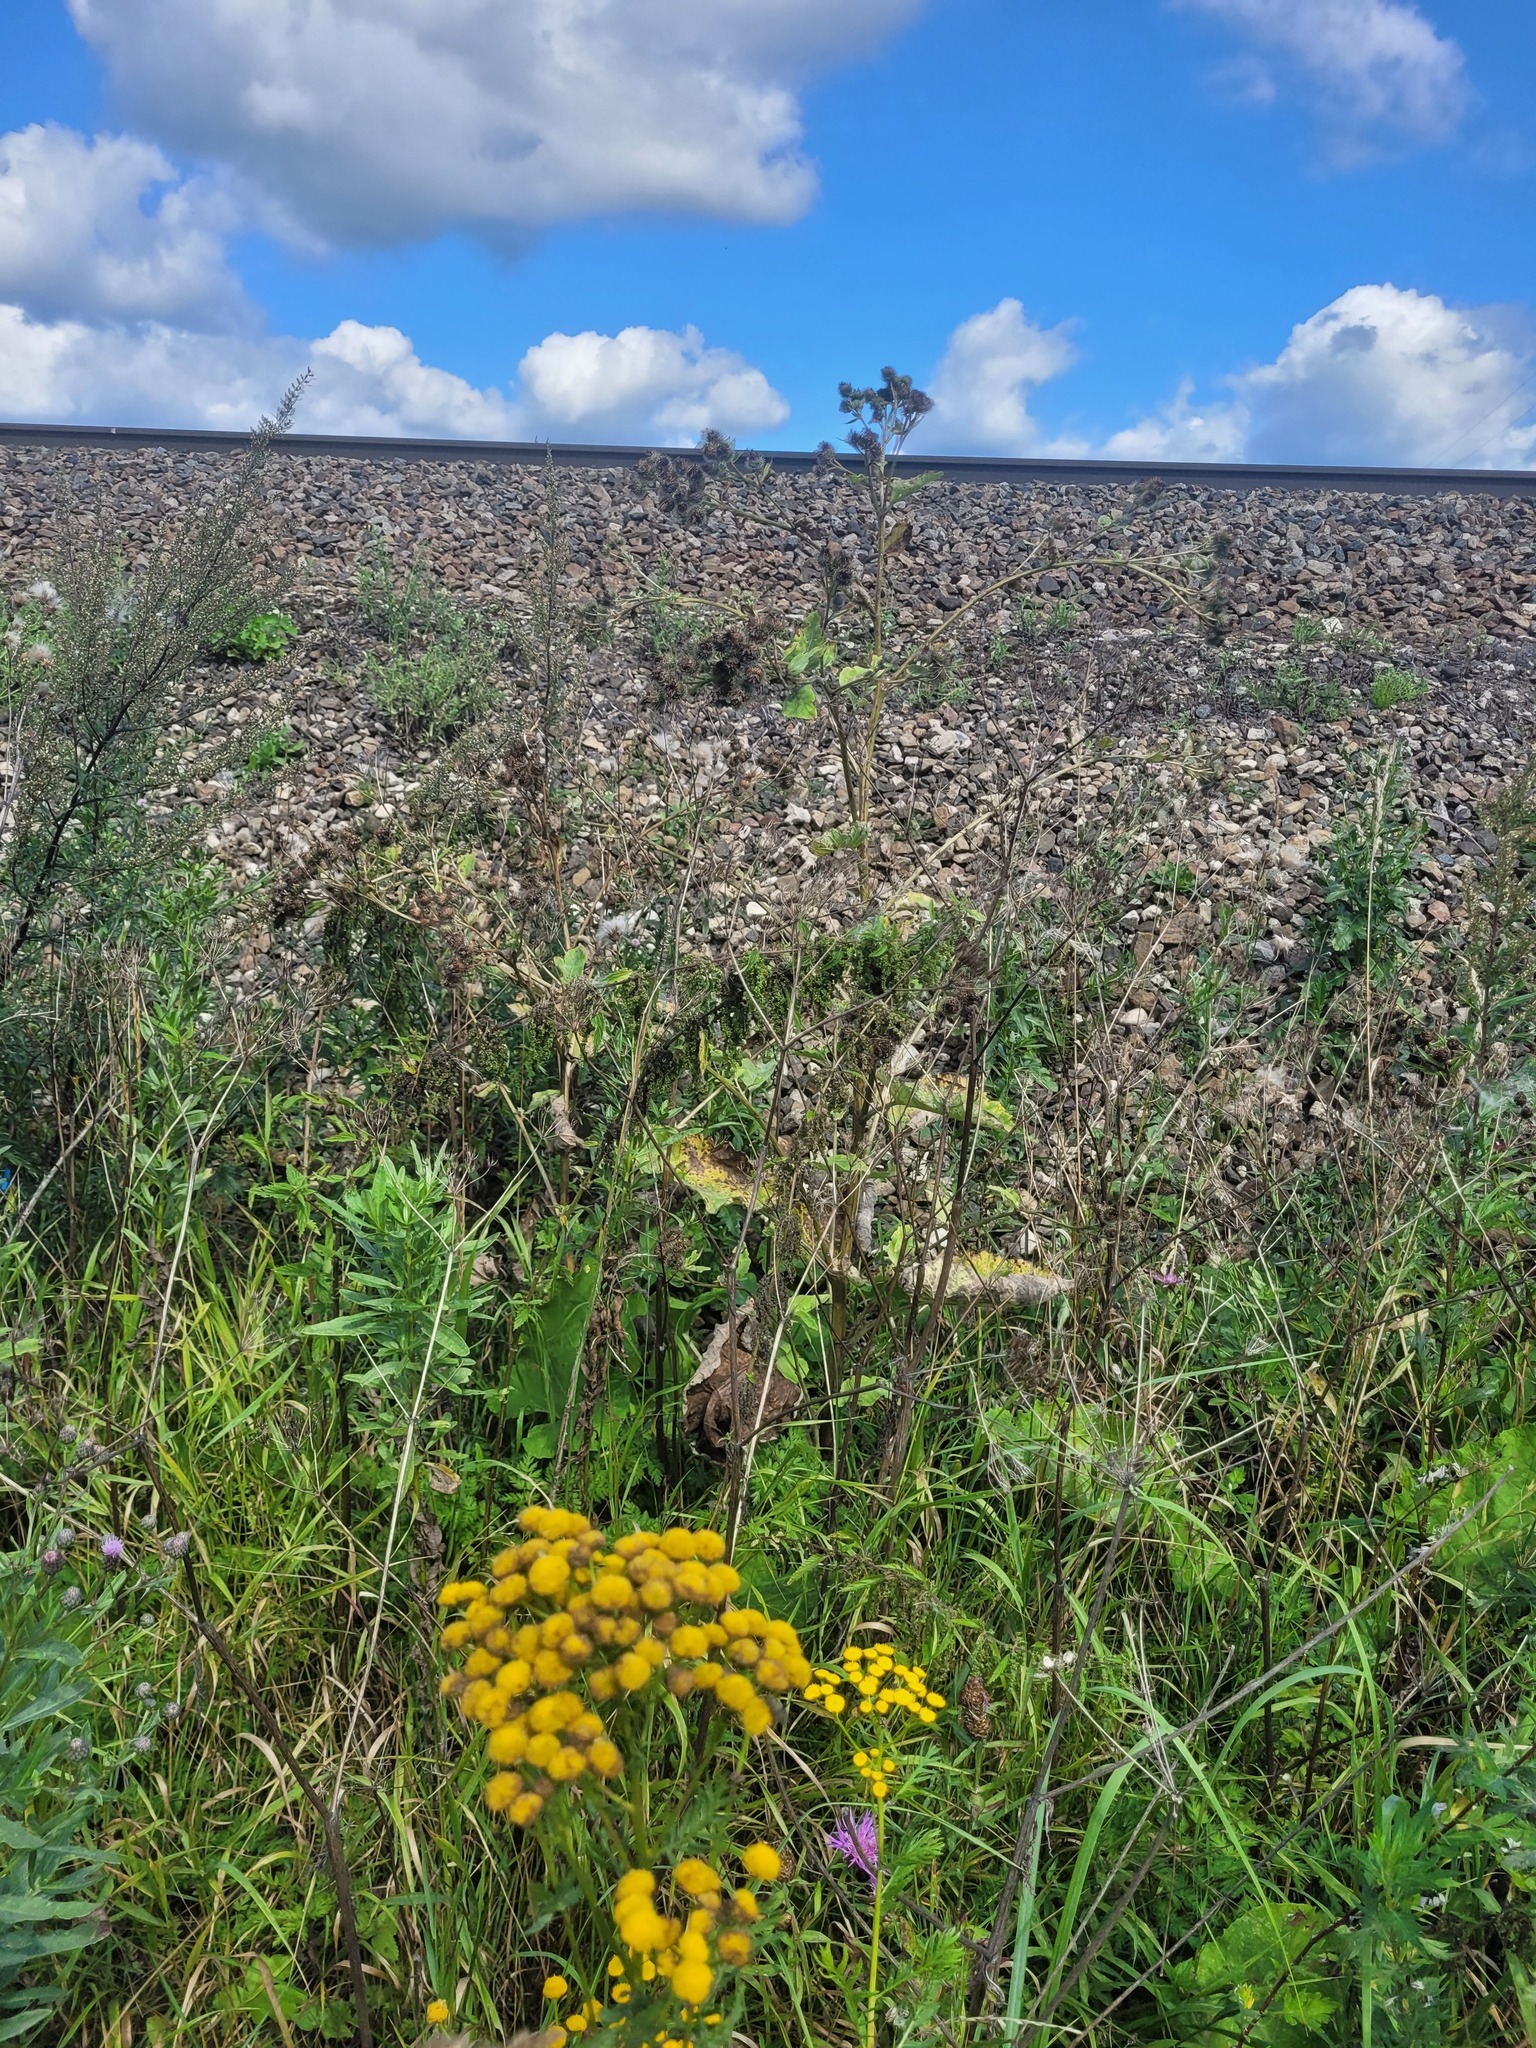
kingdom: Plantae
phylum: Tracheophyta
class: Magnoliopsida
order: Asterales
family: Asteraceae
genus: Arctium
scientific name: Arctium tomentosum
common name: Woolly burdock
